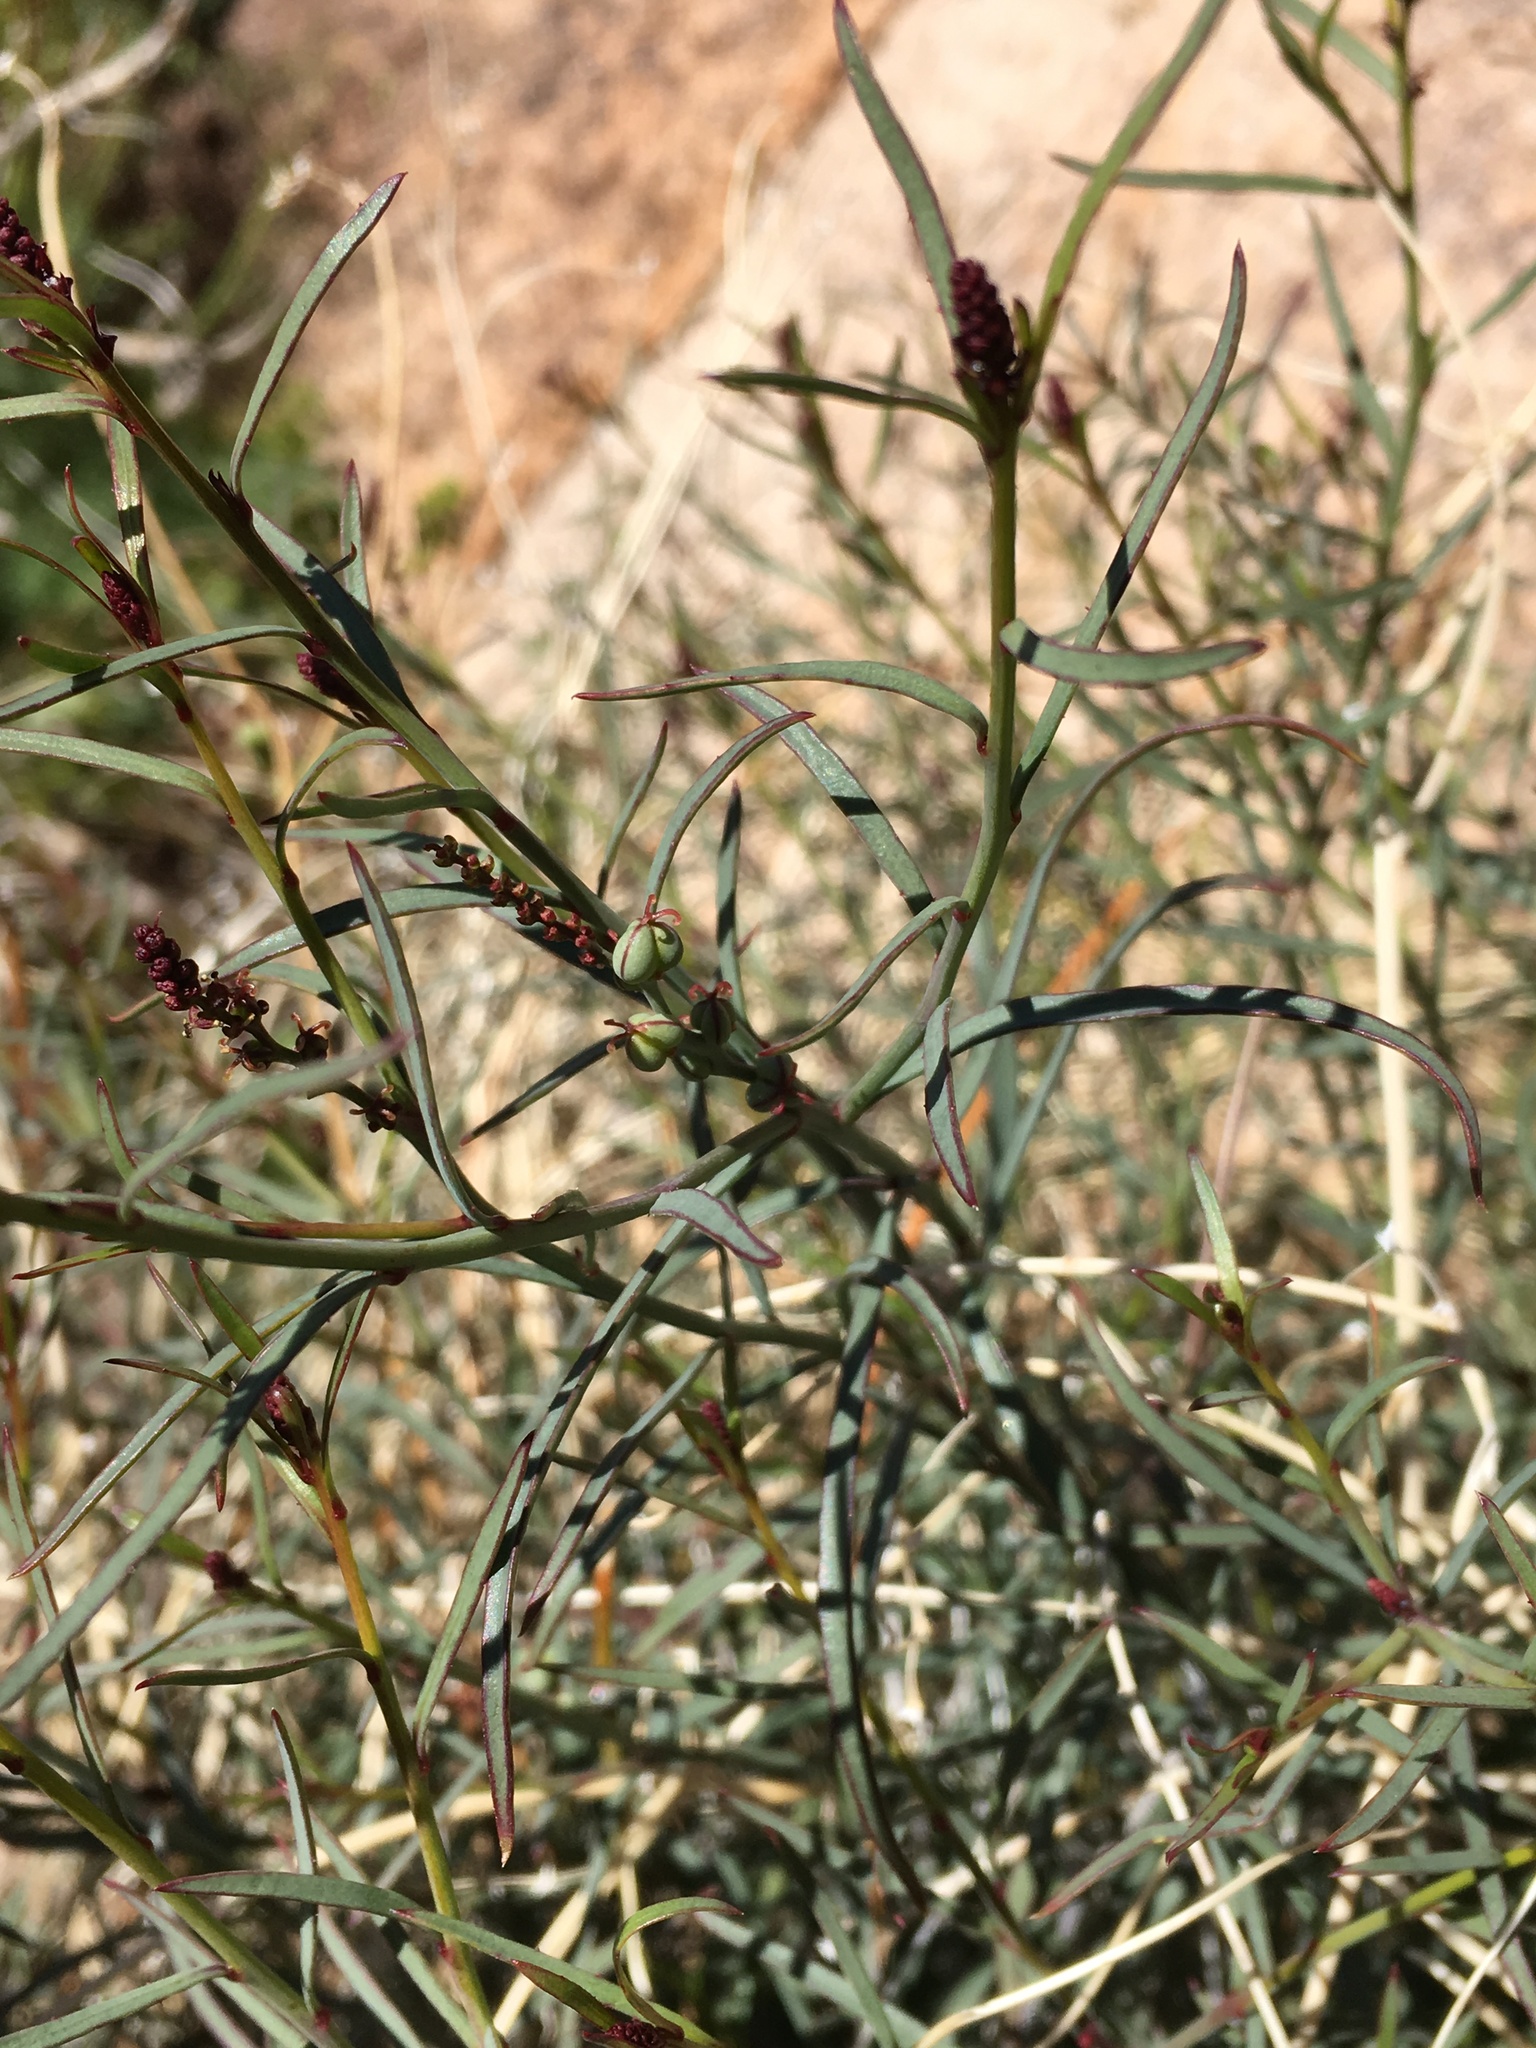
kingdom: Plantae
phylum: Tracheophyta
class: Magnoliopsida
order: Malpighiales
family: Euphorbiaceae
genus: Stillingia
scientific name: Stillingia linearifolia
